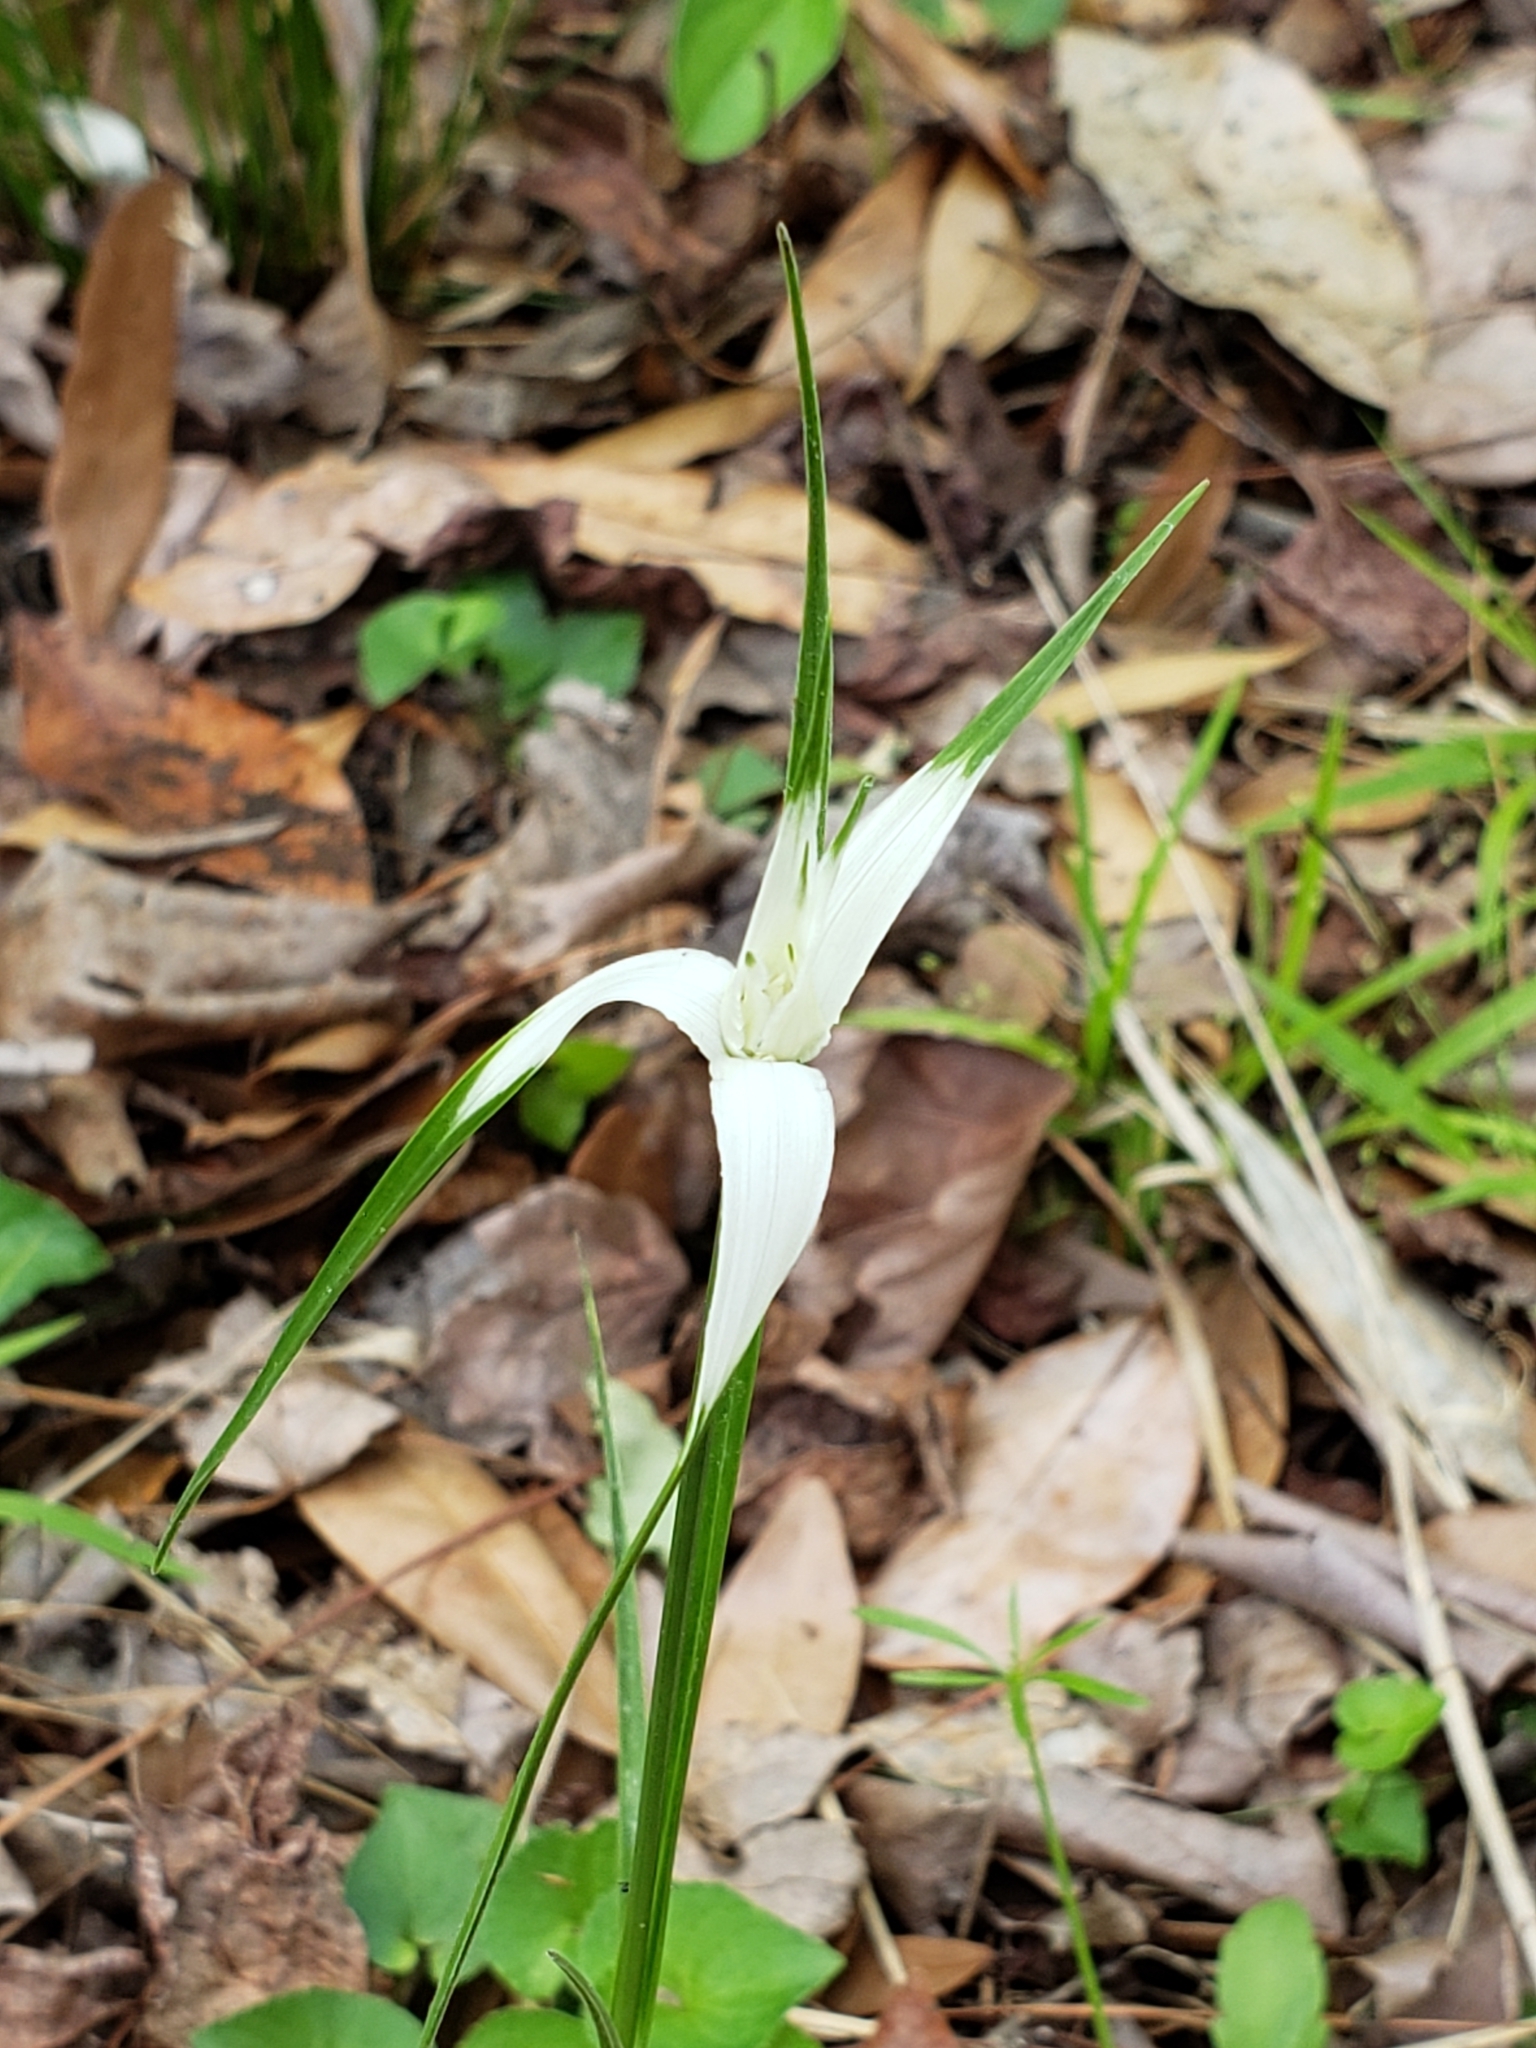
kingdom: Plantae
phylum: Tracheophyta
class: Liliopsida
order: Poales
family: Cyperaceae
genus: Rhynchospora
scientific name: Rhynchospora colorata
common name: Star sedge
